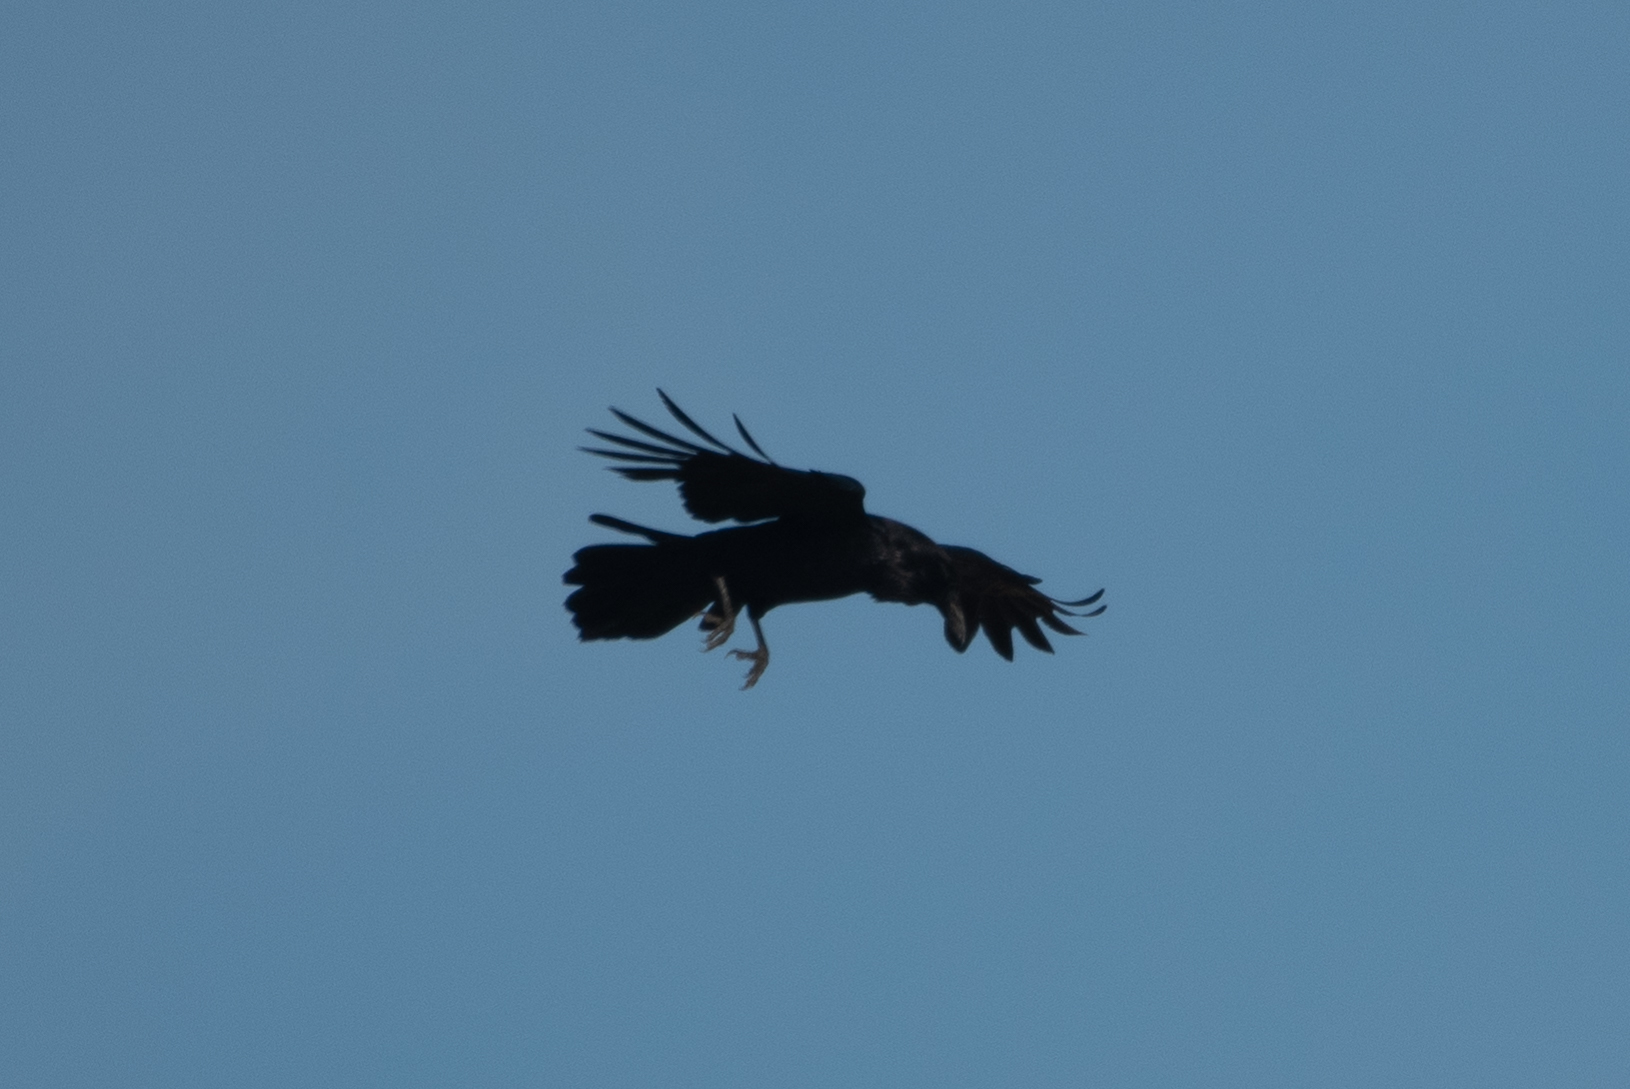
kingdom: Animalia
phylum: Chordata
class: Aves
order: Passeriformes
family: Corvidae
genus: Corvus
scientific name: Corvus corax
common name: Common raven
